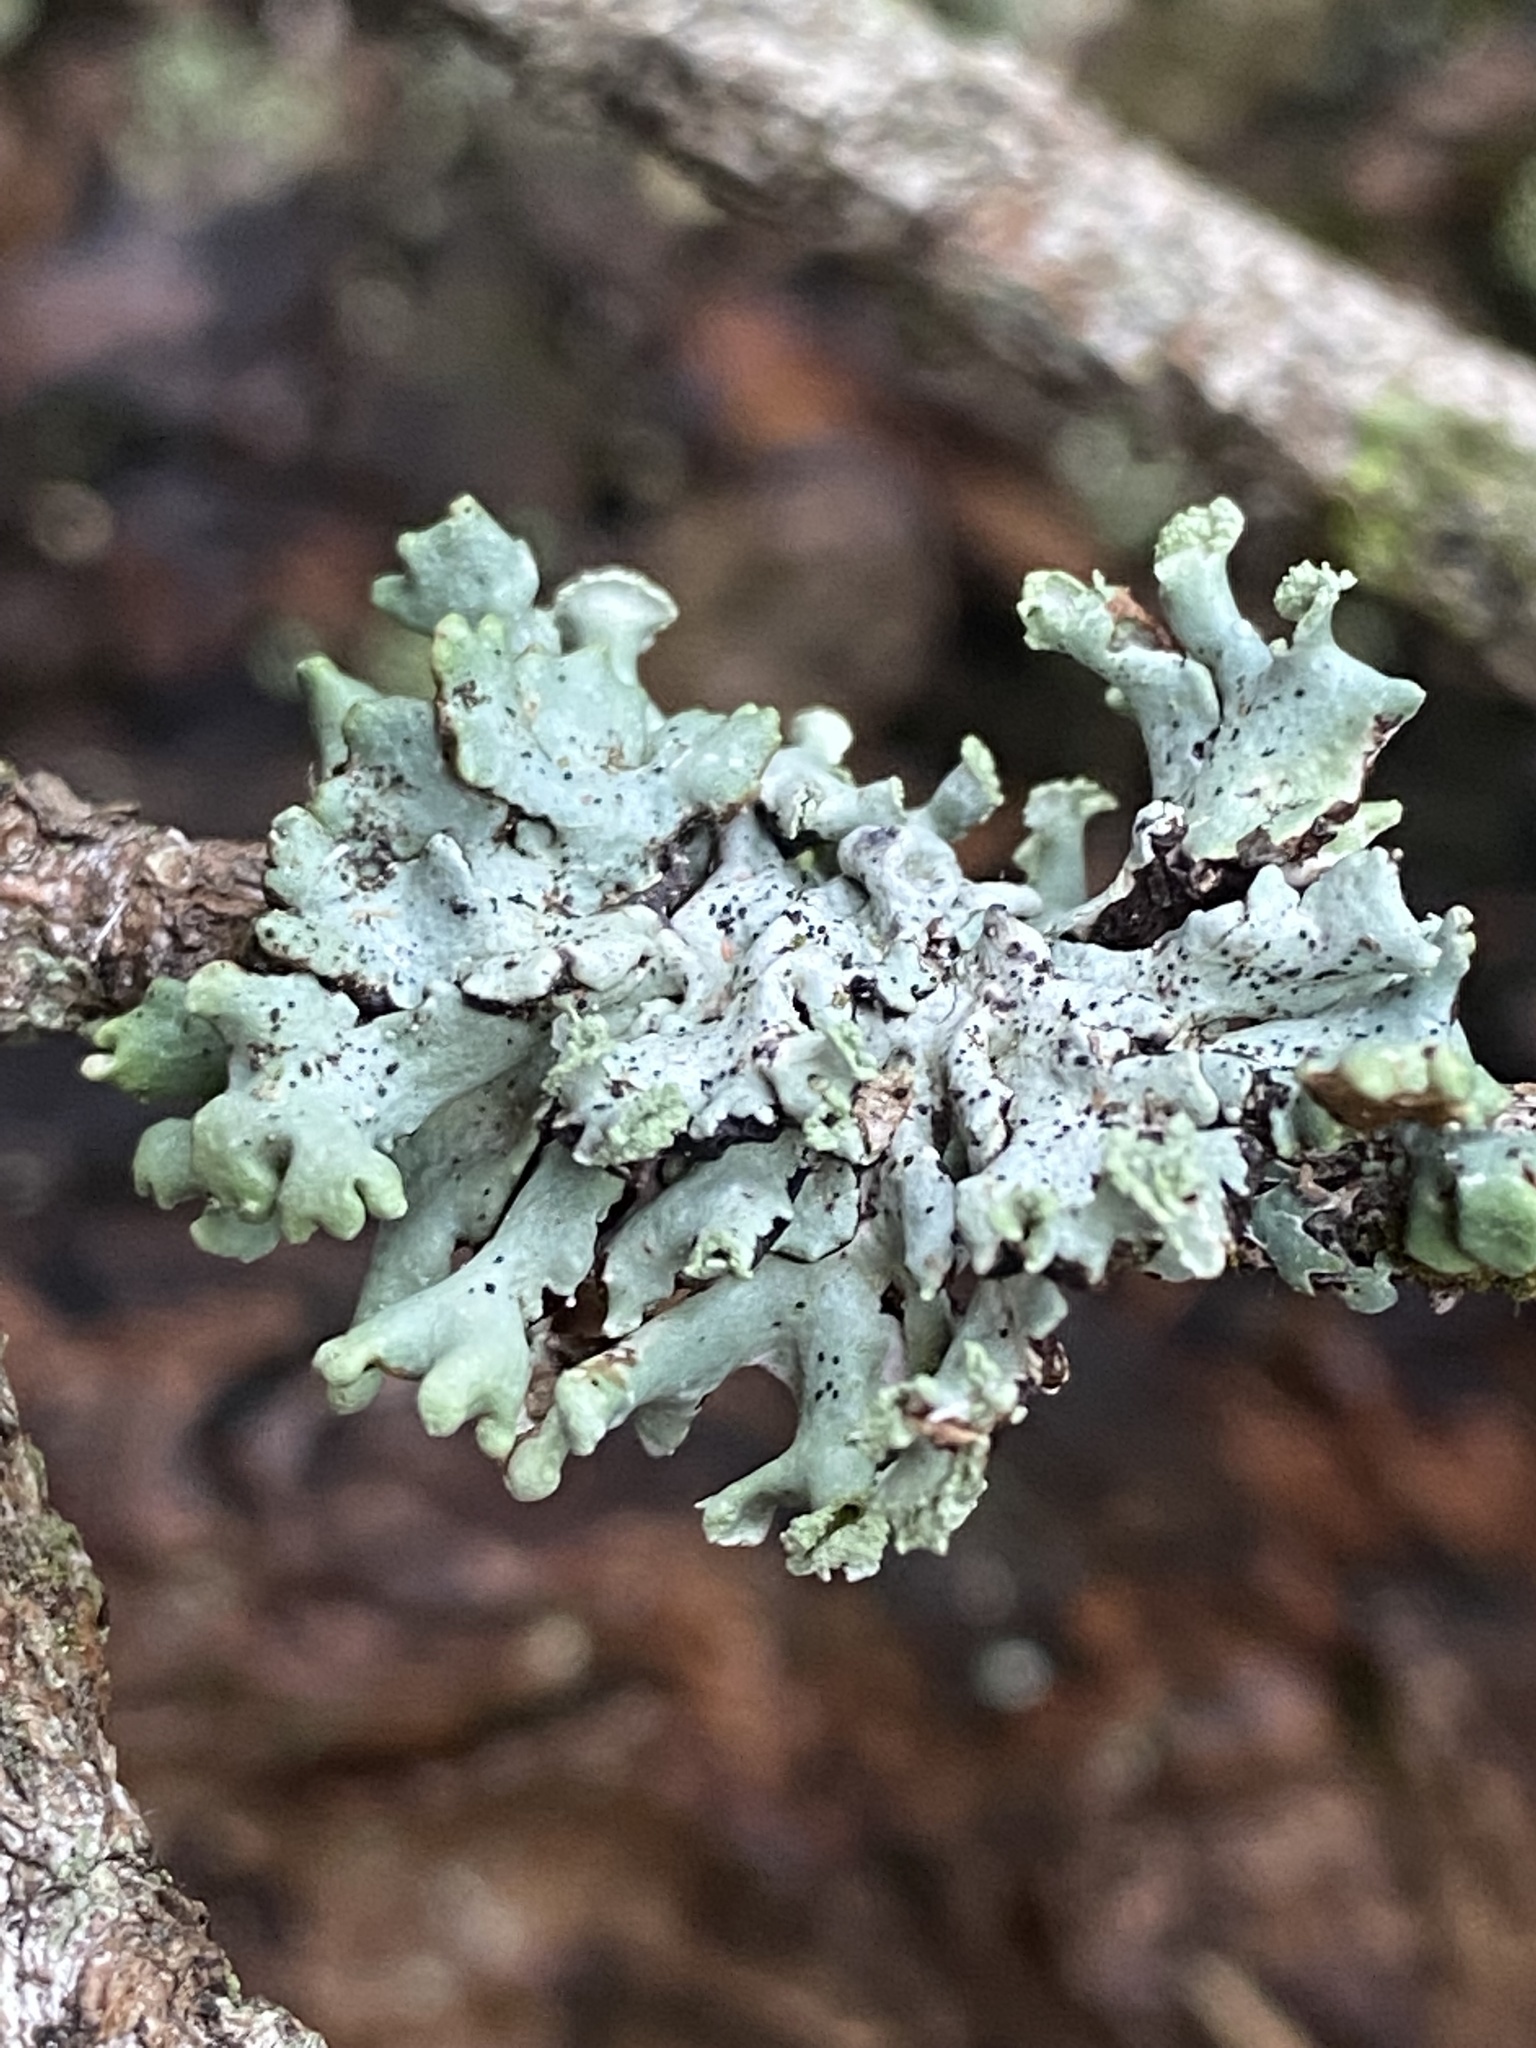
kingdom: Fungi
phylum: Ascomycota
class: Lecanoromycetes
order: Lecanorales
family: Parmeliaceae
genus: Hypogymnia
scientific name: Hypogymnia physodes
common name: Dark crottle
